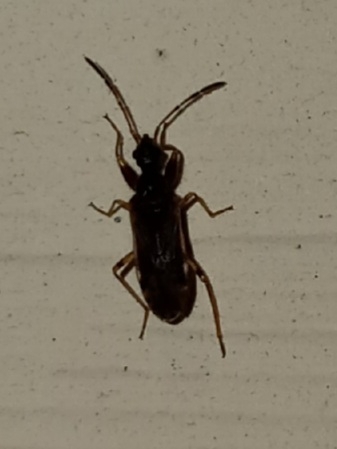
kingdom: Animalia
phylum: Arthropoda
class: Insecta
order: Hemiptera
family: Rhyparochromidae
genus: Heraeus
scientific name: Heraeus plebejus
